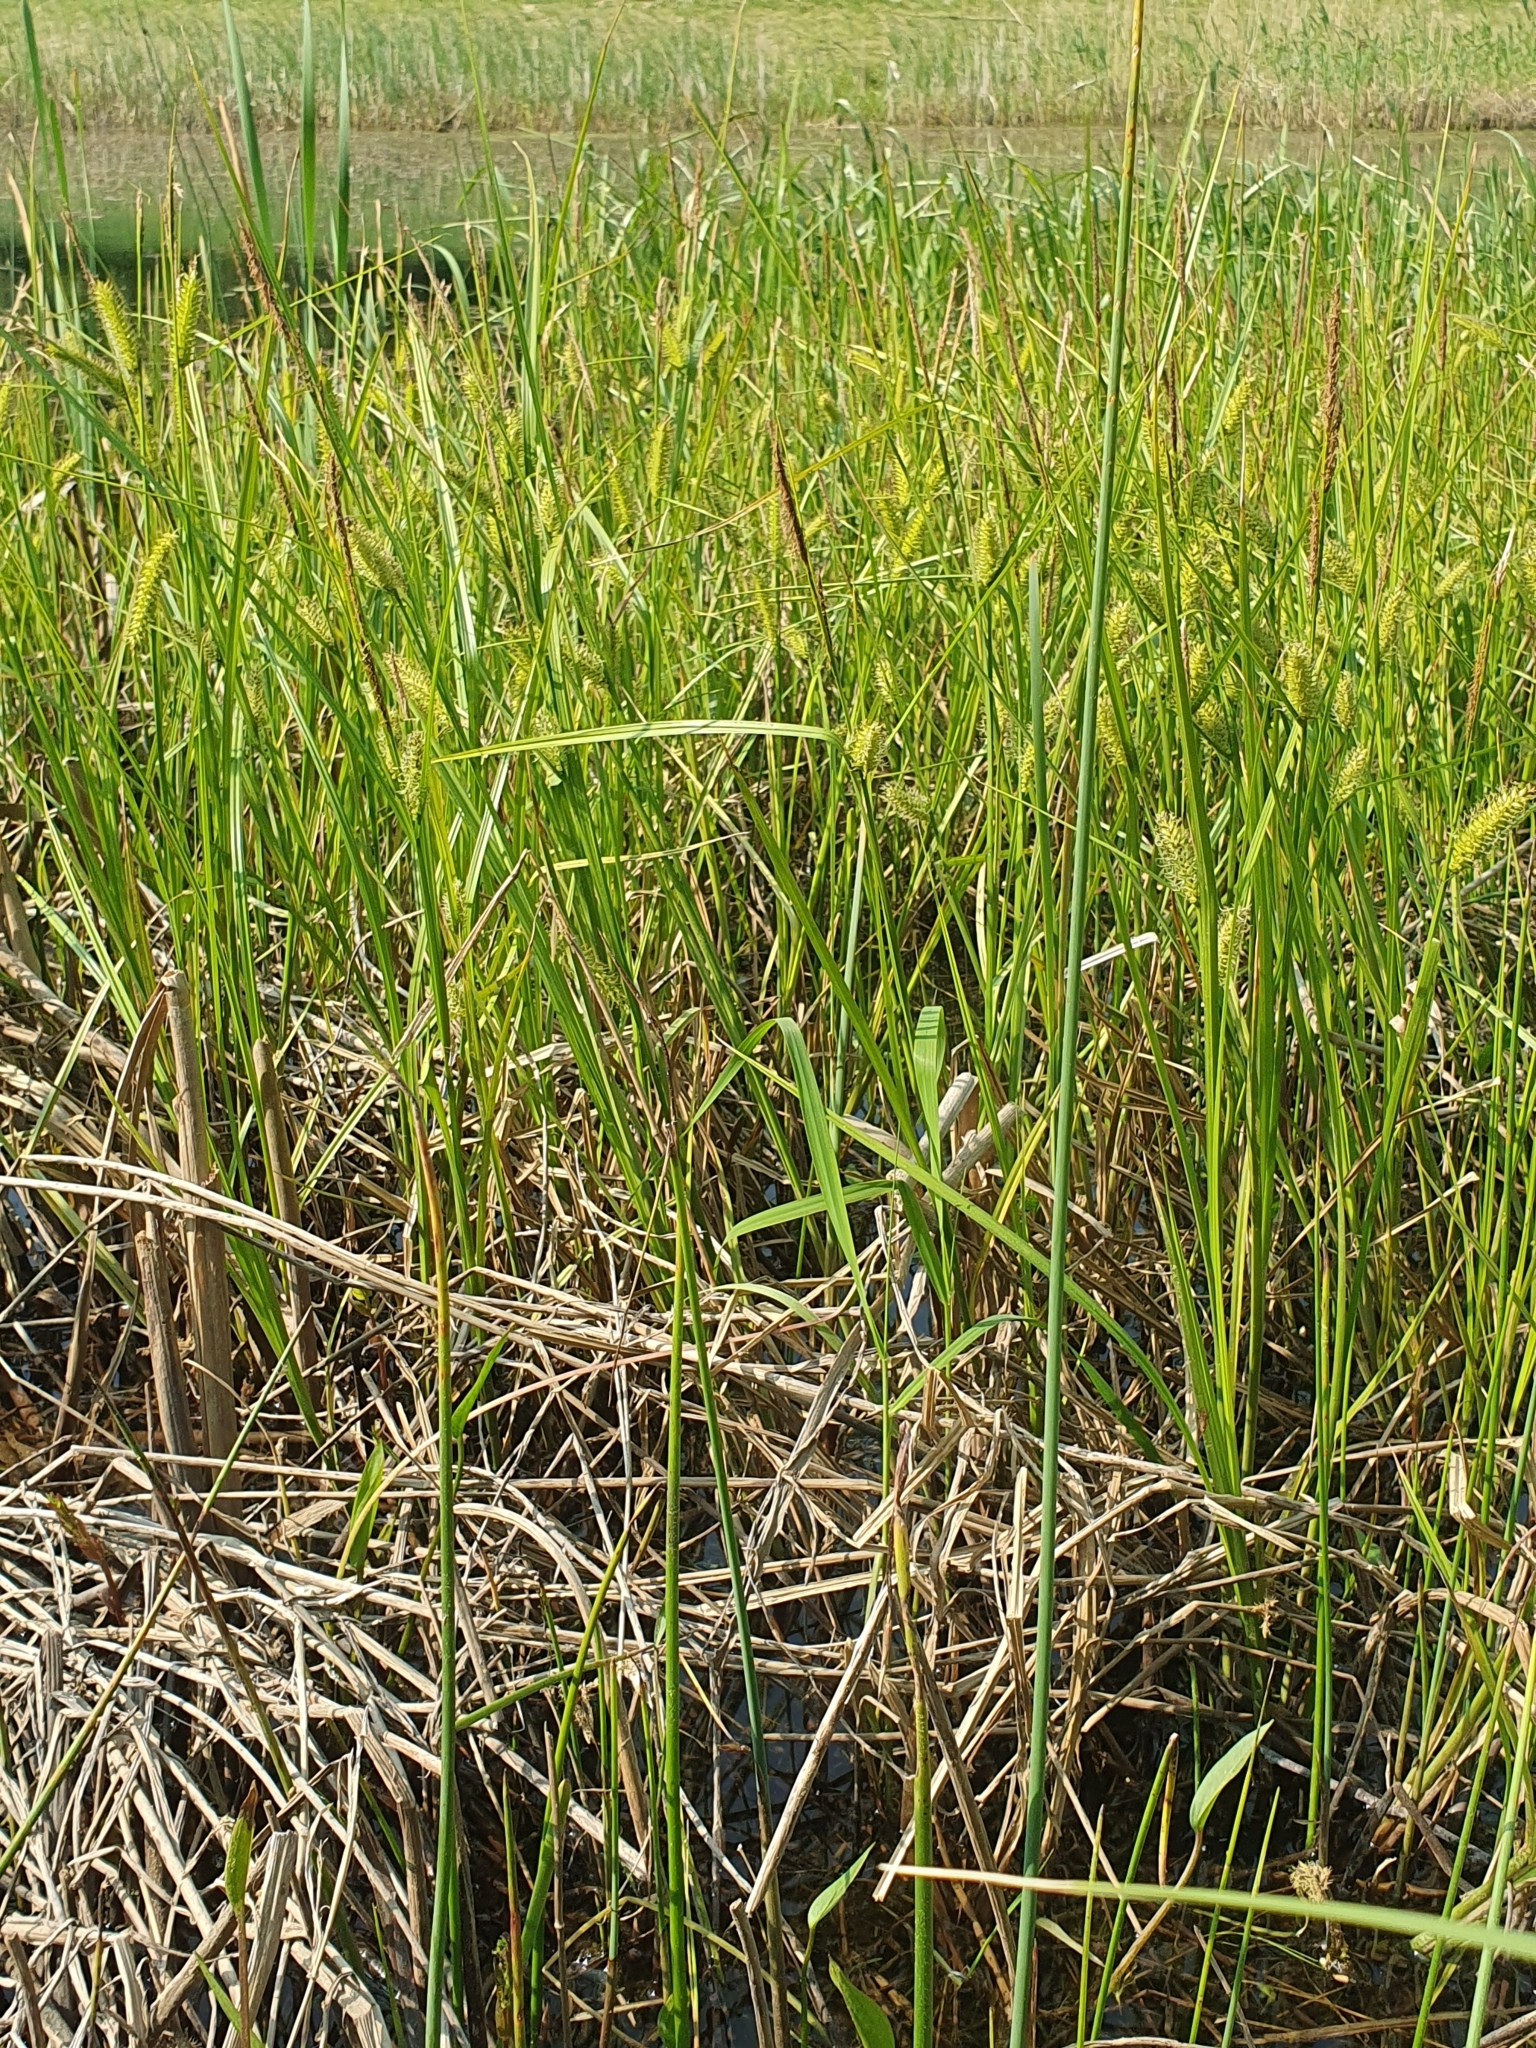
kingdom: Plantae
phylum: Tracheophyta
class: Liliopsida
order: Poales
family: Cyperaceae
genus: Carex
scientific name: Carex rostrata
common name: Bottle sedge
